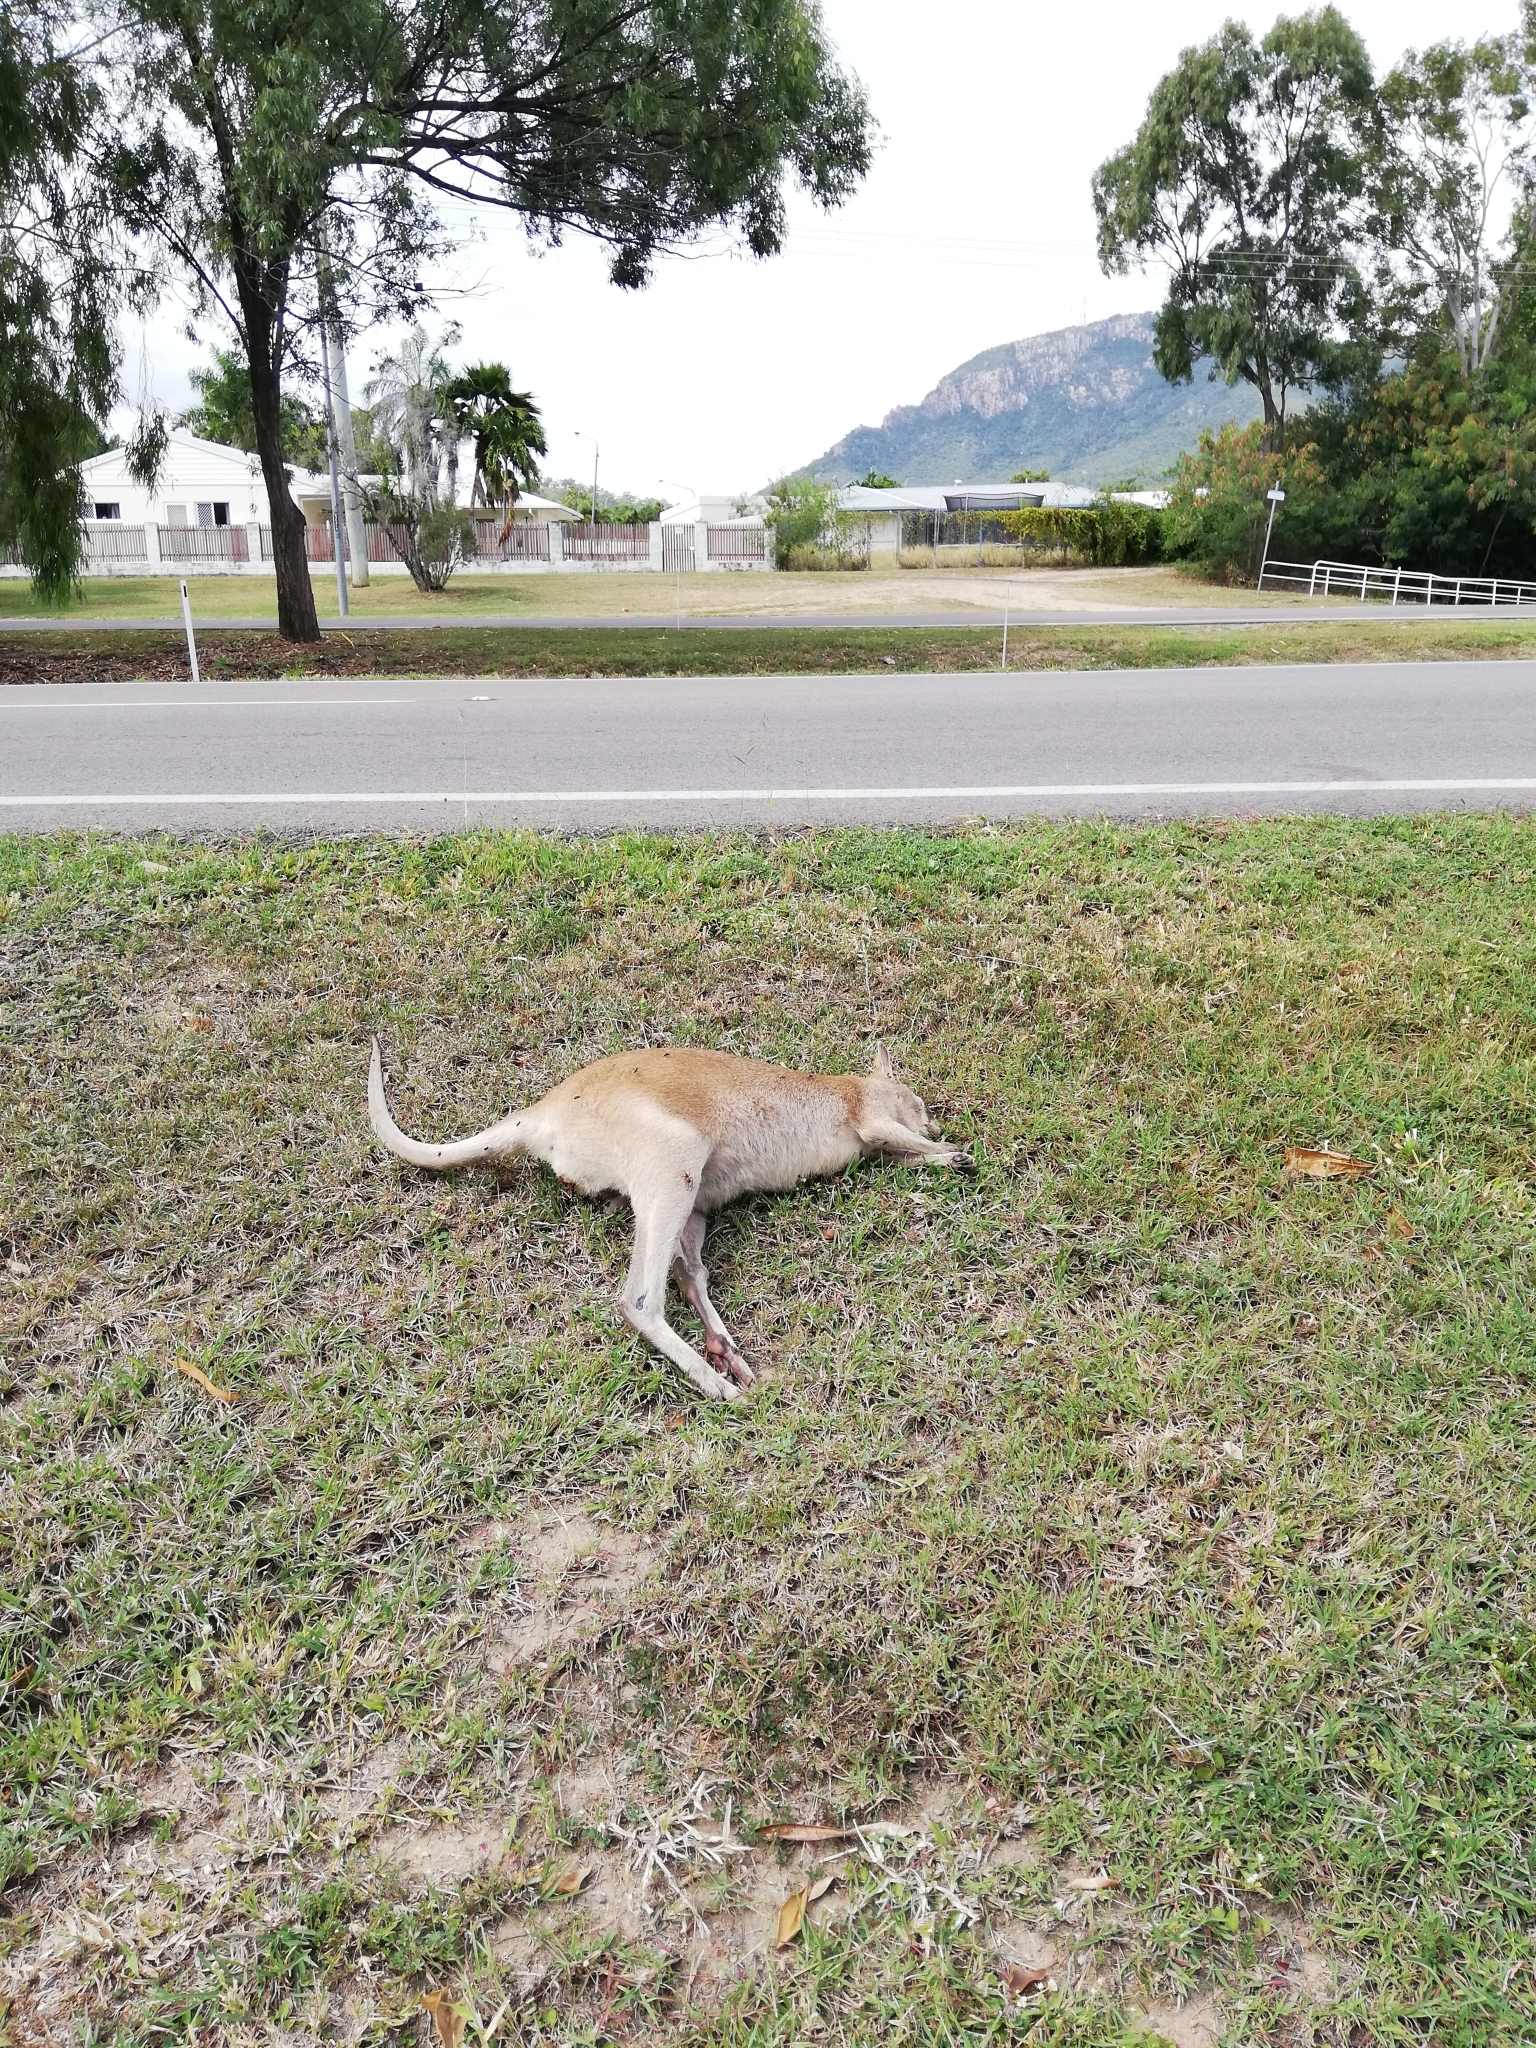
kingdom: Animalia
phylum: Chordata
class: Mammalia
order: Diprotodontia
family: Macropodidae
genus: Macropus
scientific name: Macropus agilis
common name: Agile wallaby
